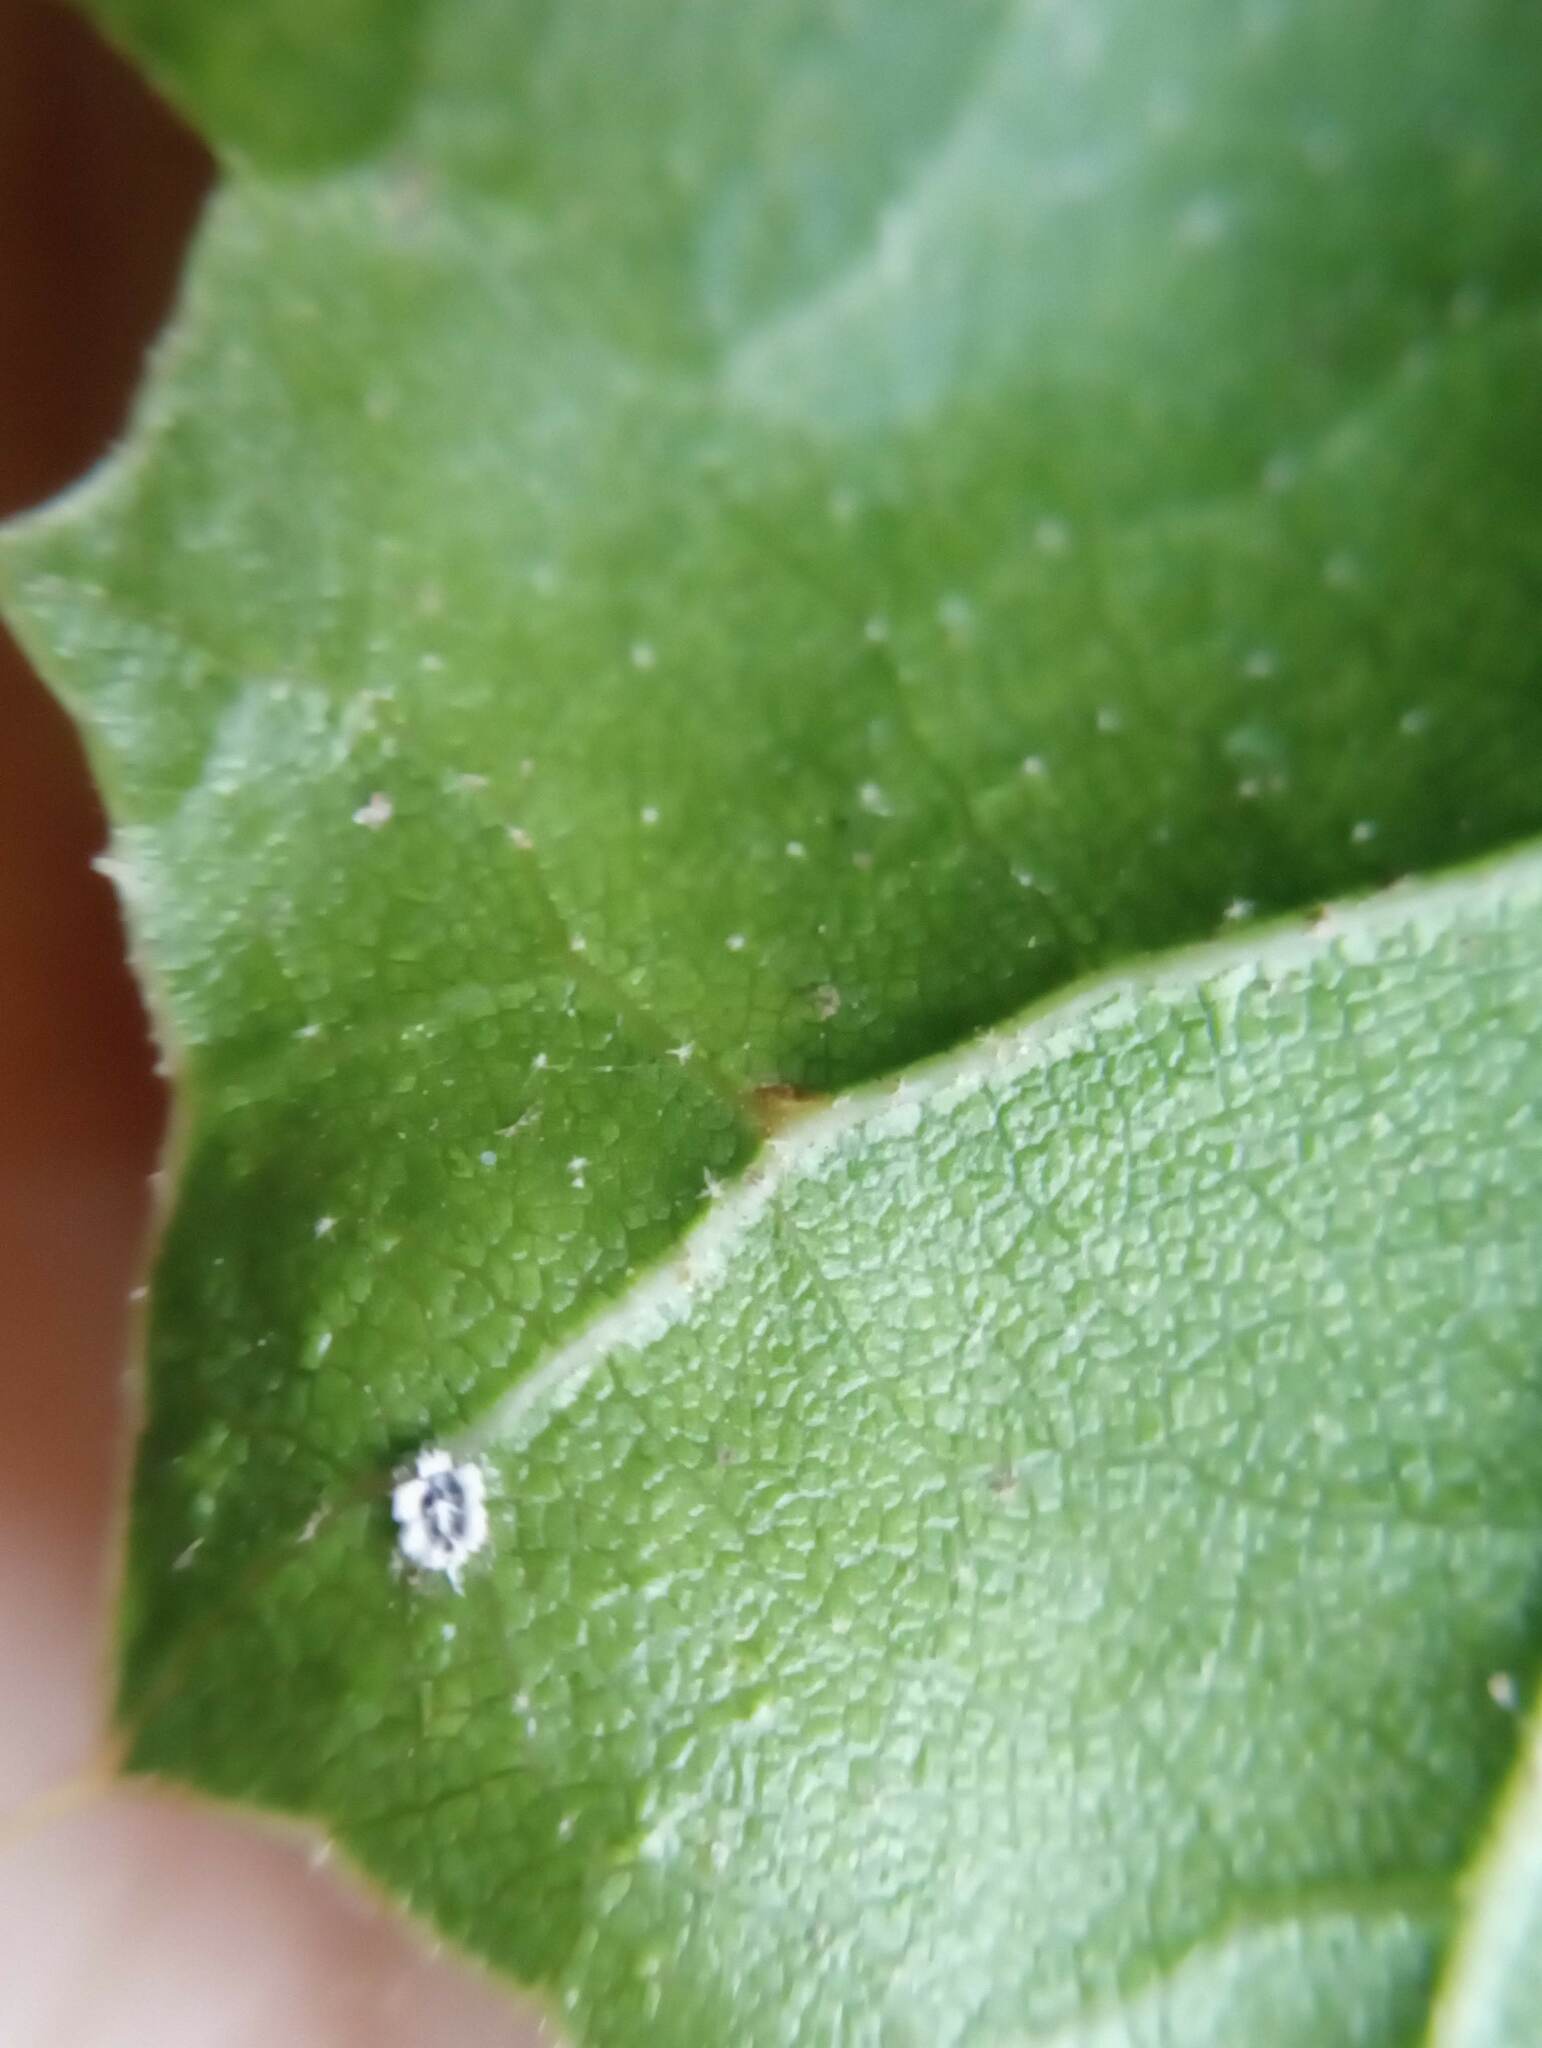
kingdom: Animalia
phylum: Arthropoda
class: Insecta
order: Hemiptera
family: Aleyrodidae
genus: Aleuroplatus
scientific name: Aleuroplatus coronata
